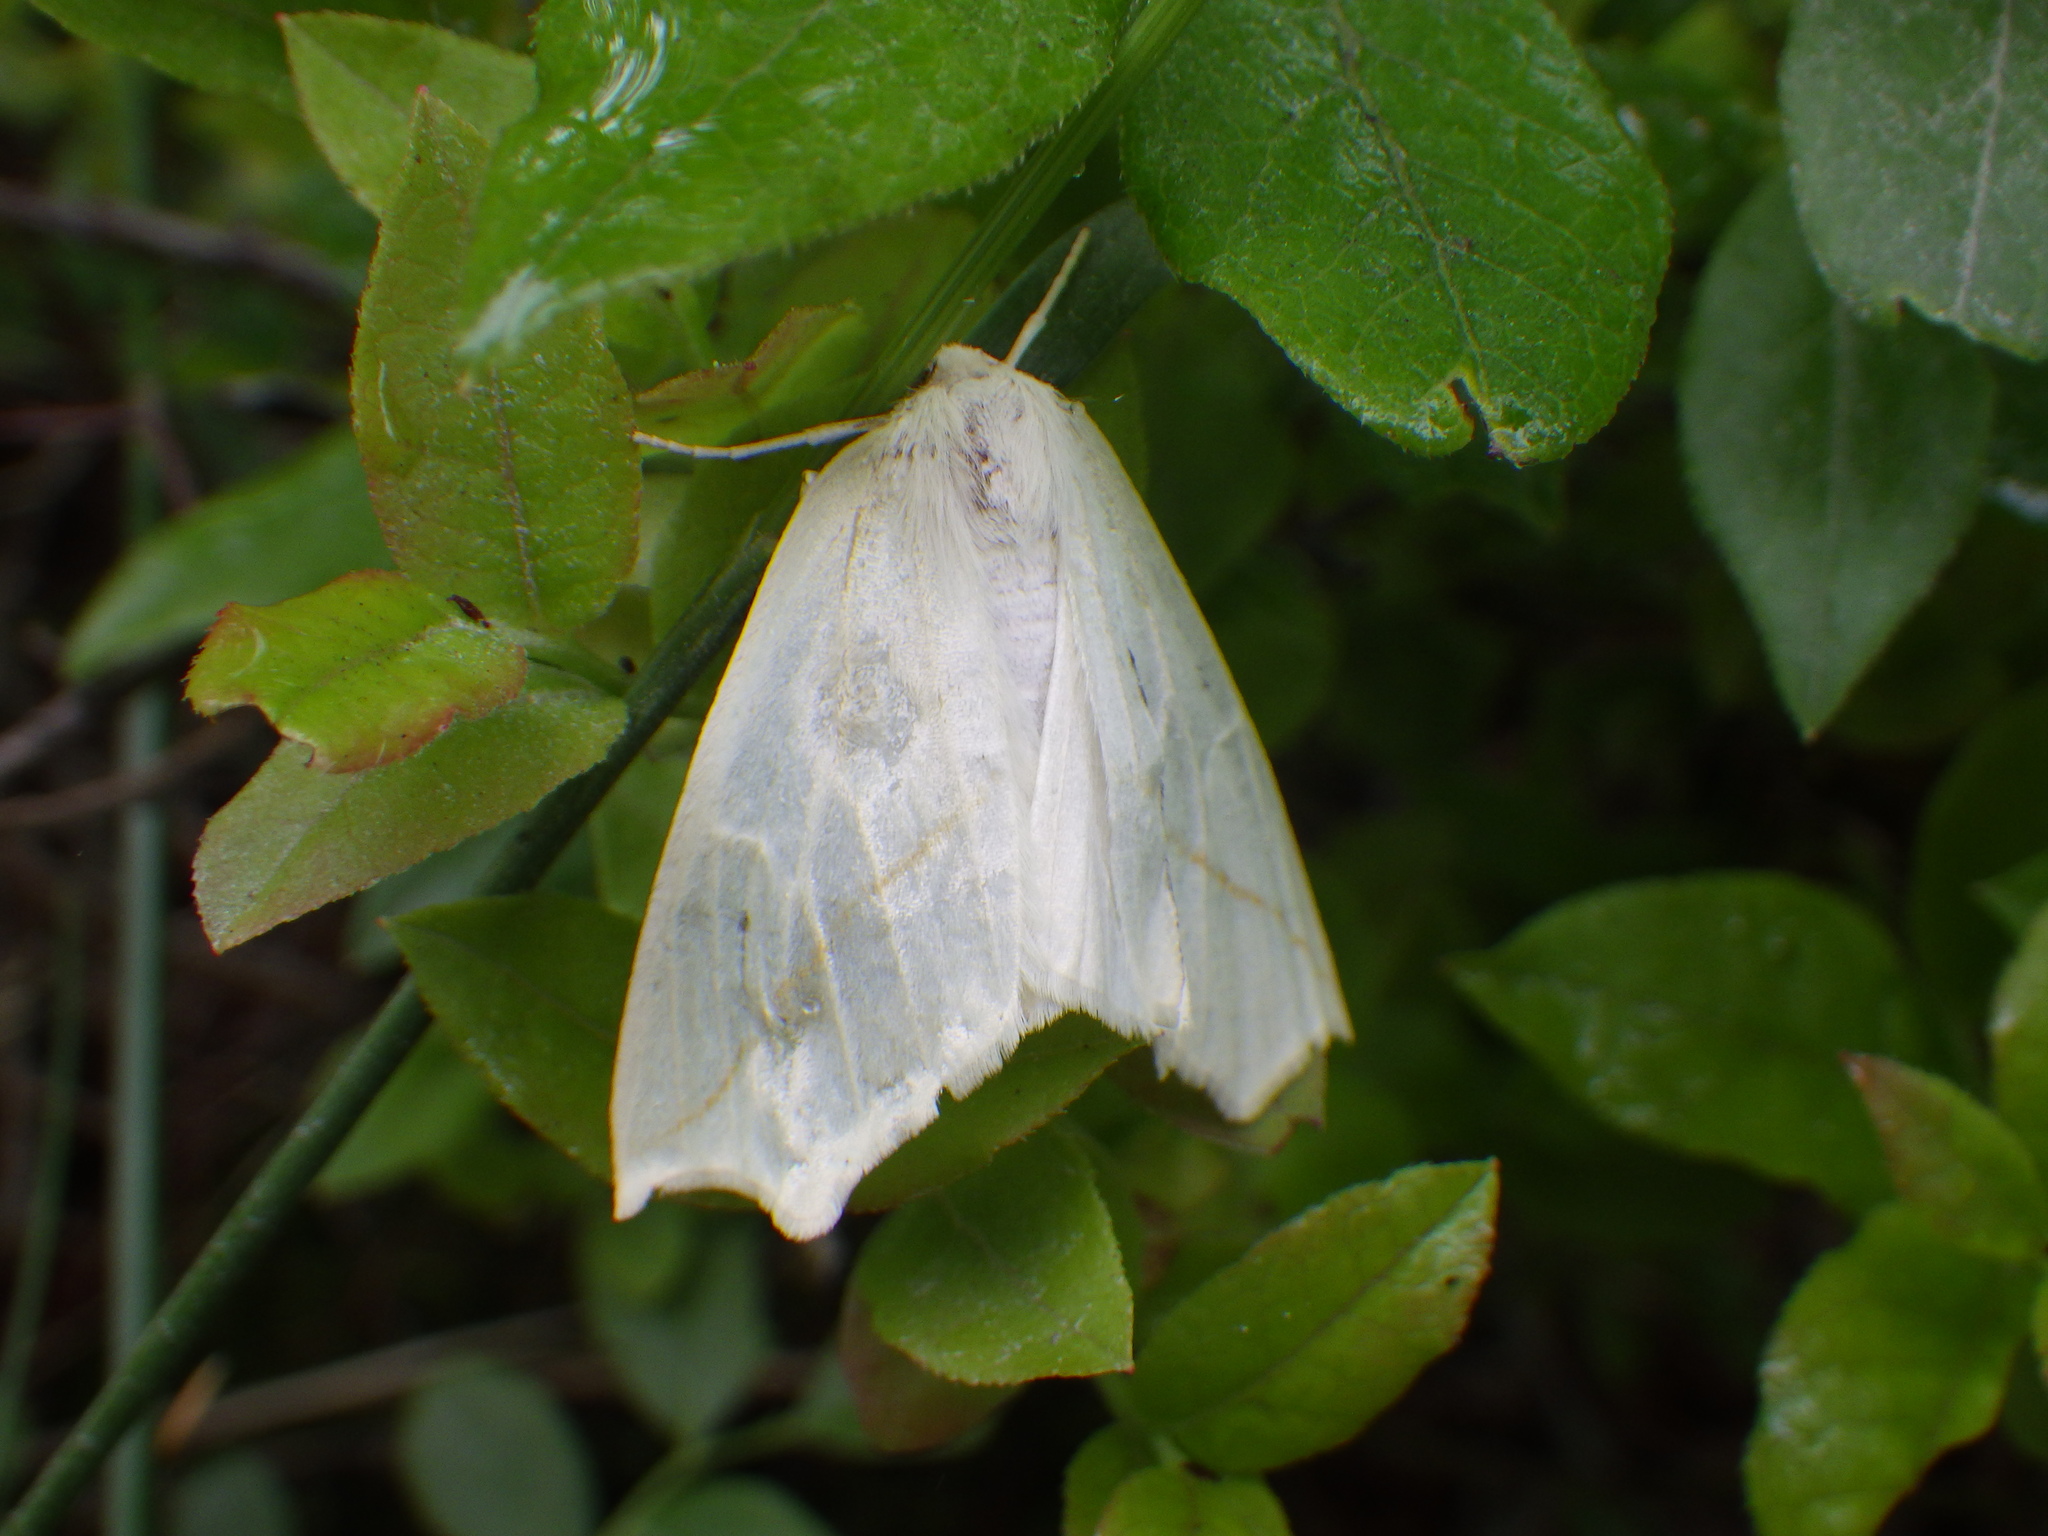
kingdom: Animalia
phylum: Arthropoda
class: Insecta
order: Lepidoptera
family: Geometridae
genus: Tetracis
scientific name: Tetracis cachexiata
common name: White slant-line
